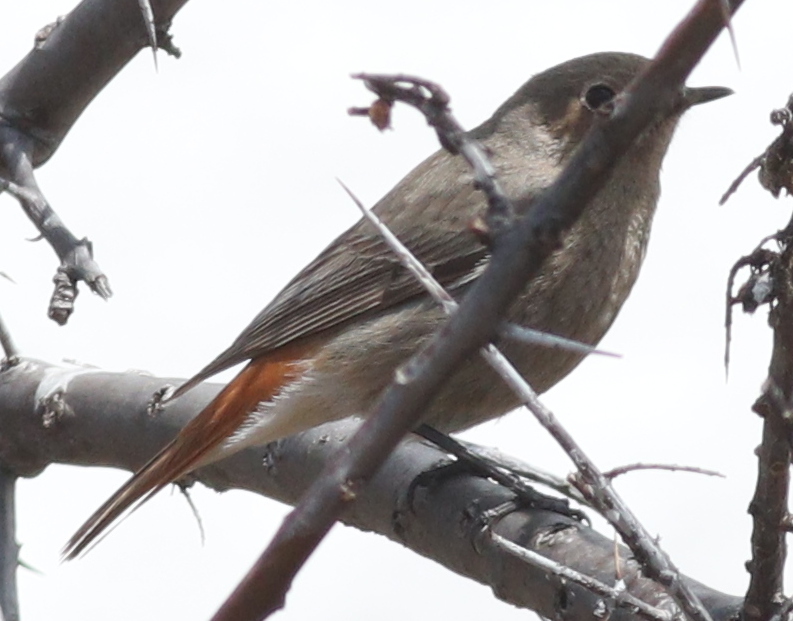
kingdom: Animalia
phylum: Chordata
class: Aves
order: Passeriformes
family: Muscicapidae
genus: Phoenicurus
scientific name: Phoenicurus ochruros
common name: Black redstart
